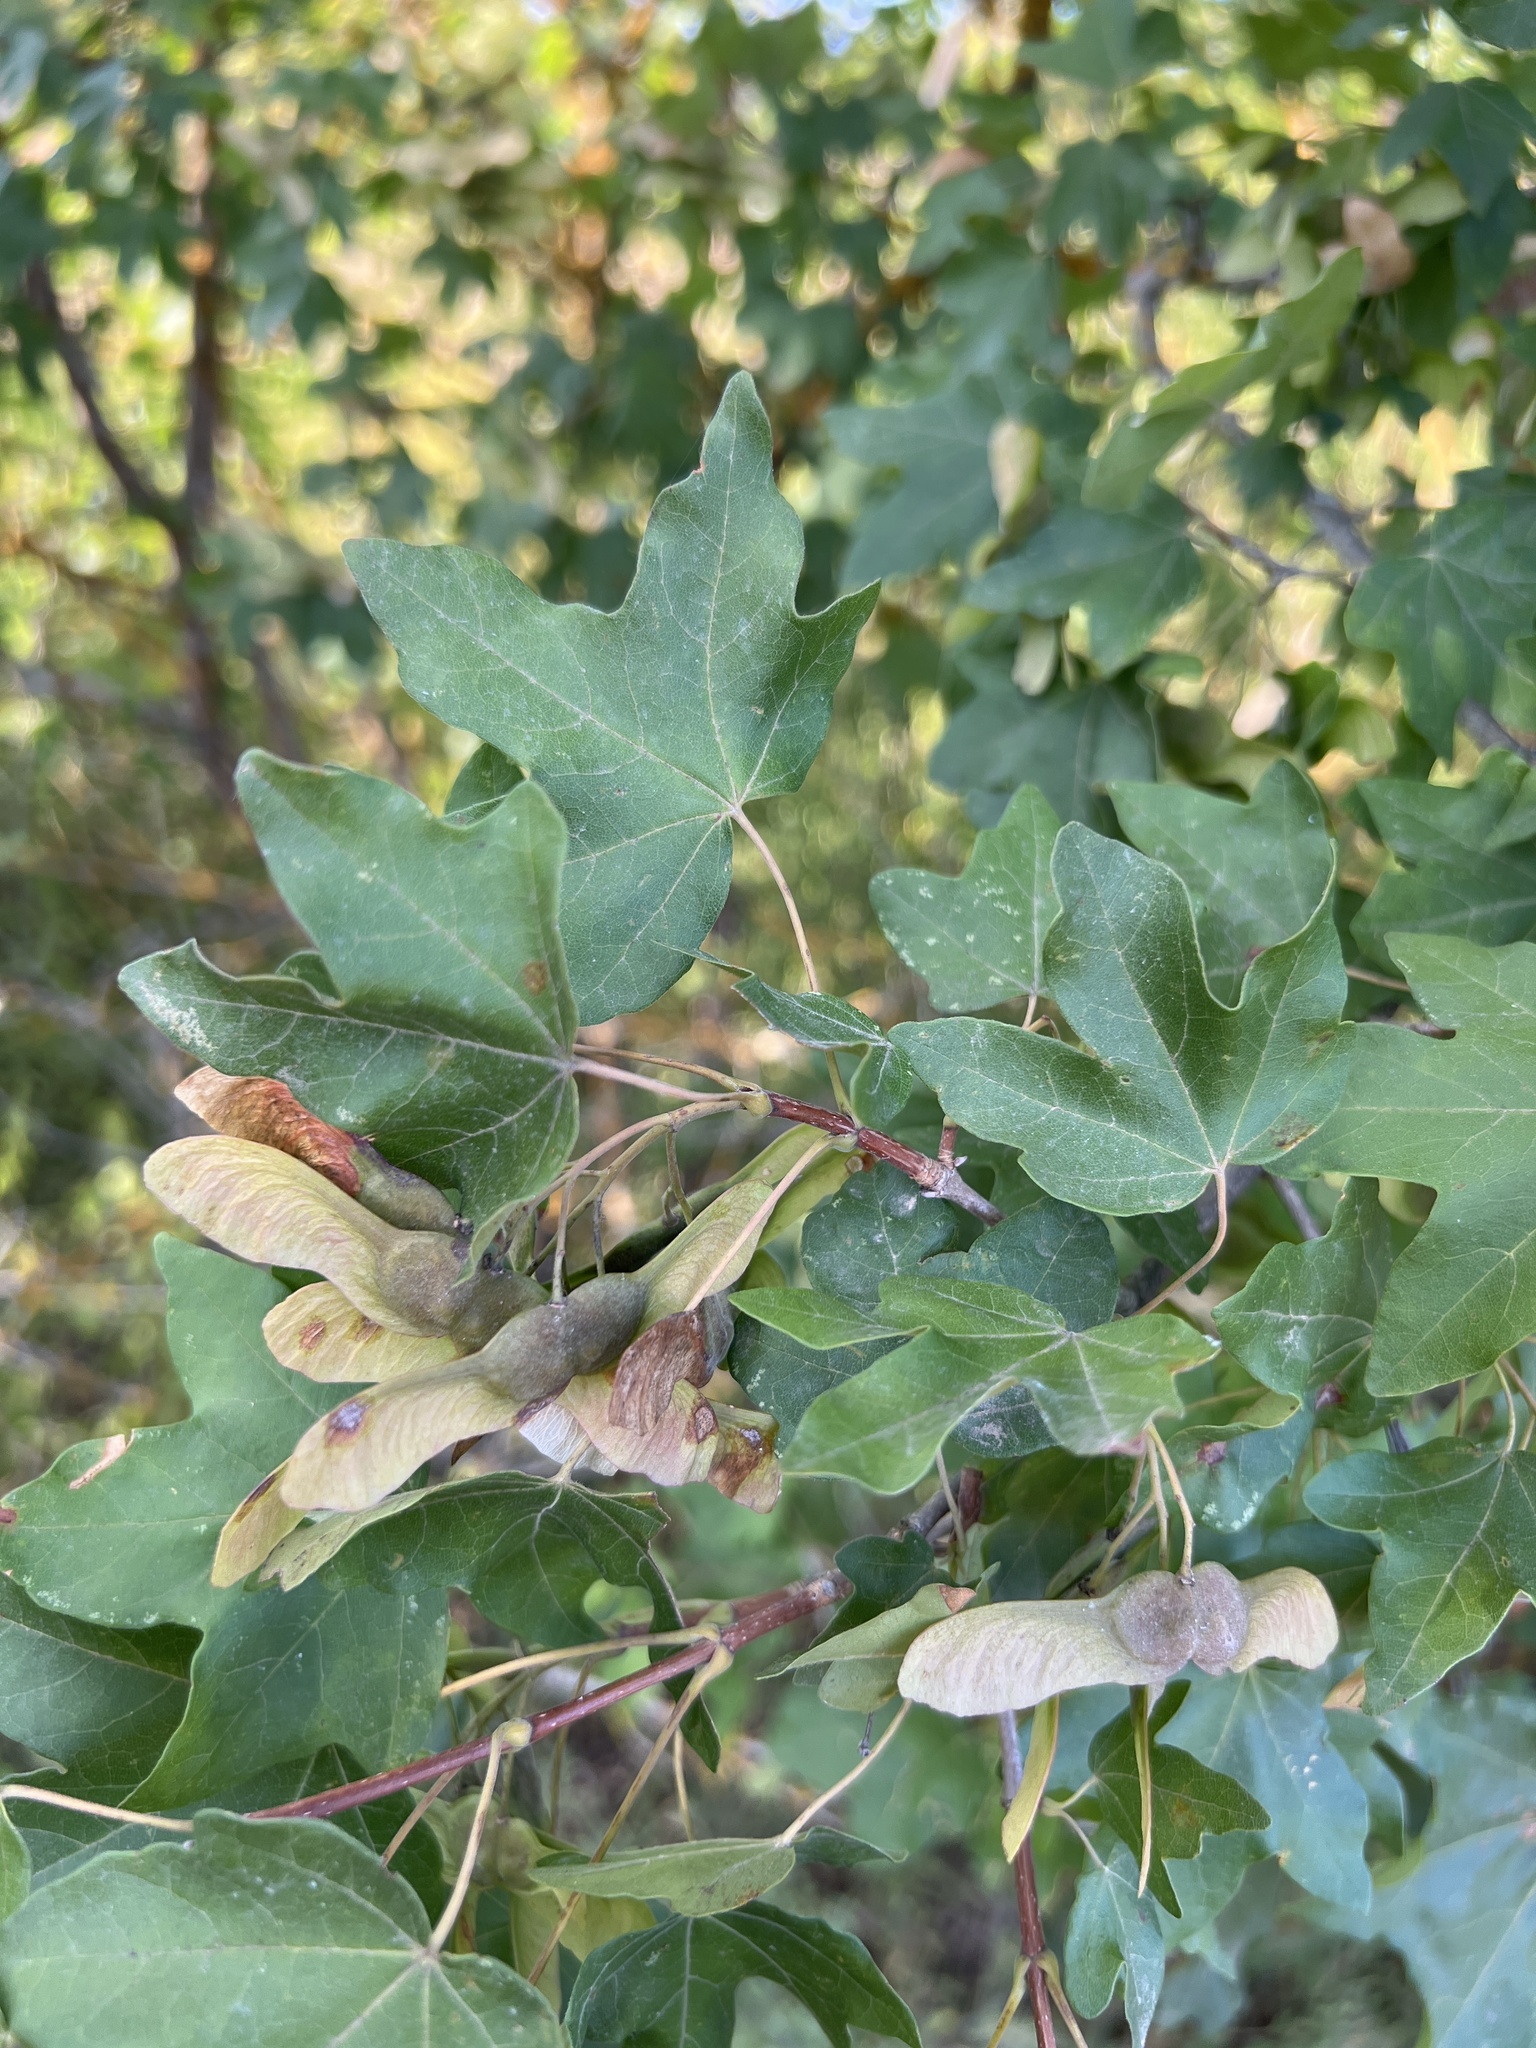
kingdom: Plantae
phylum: Tracheophyta
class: Magnoliopsida
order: Sapindales
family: Sapindaceae
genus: Acer
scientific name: Acer campestre
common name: Field maple
